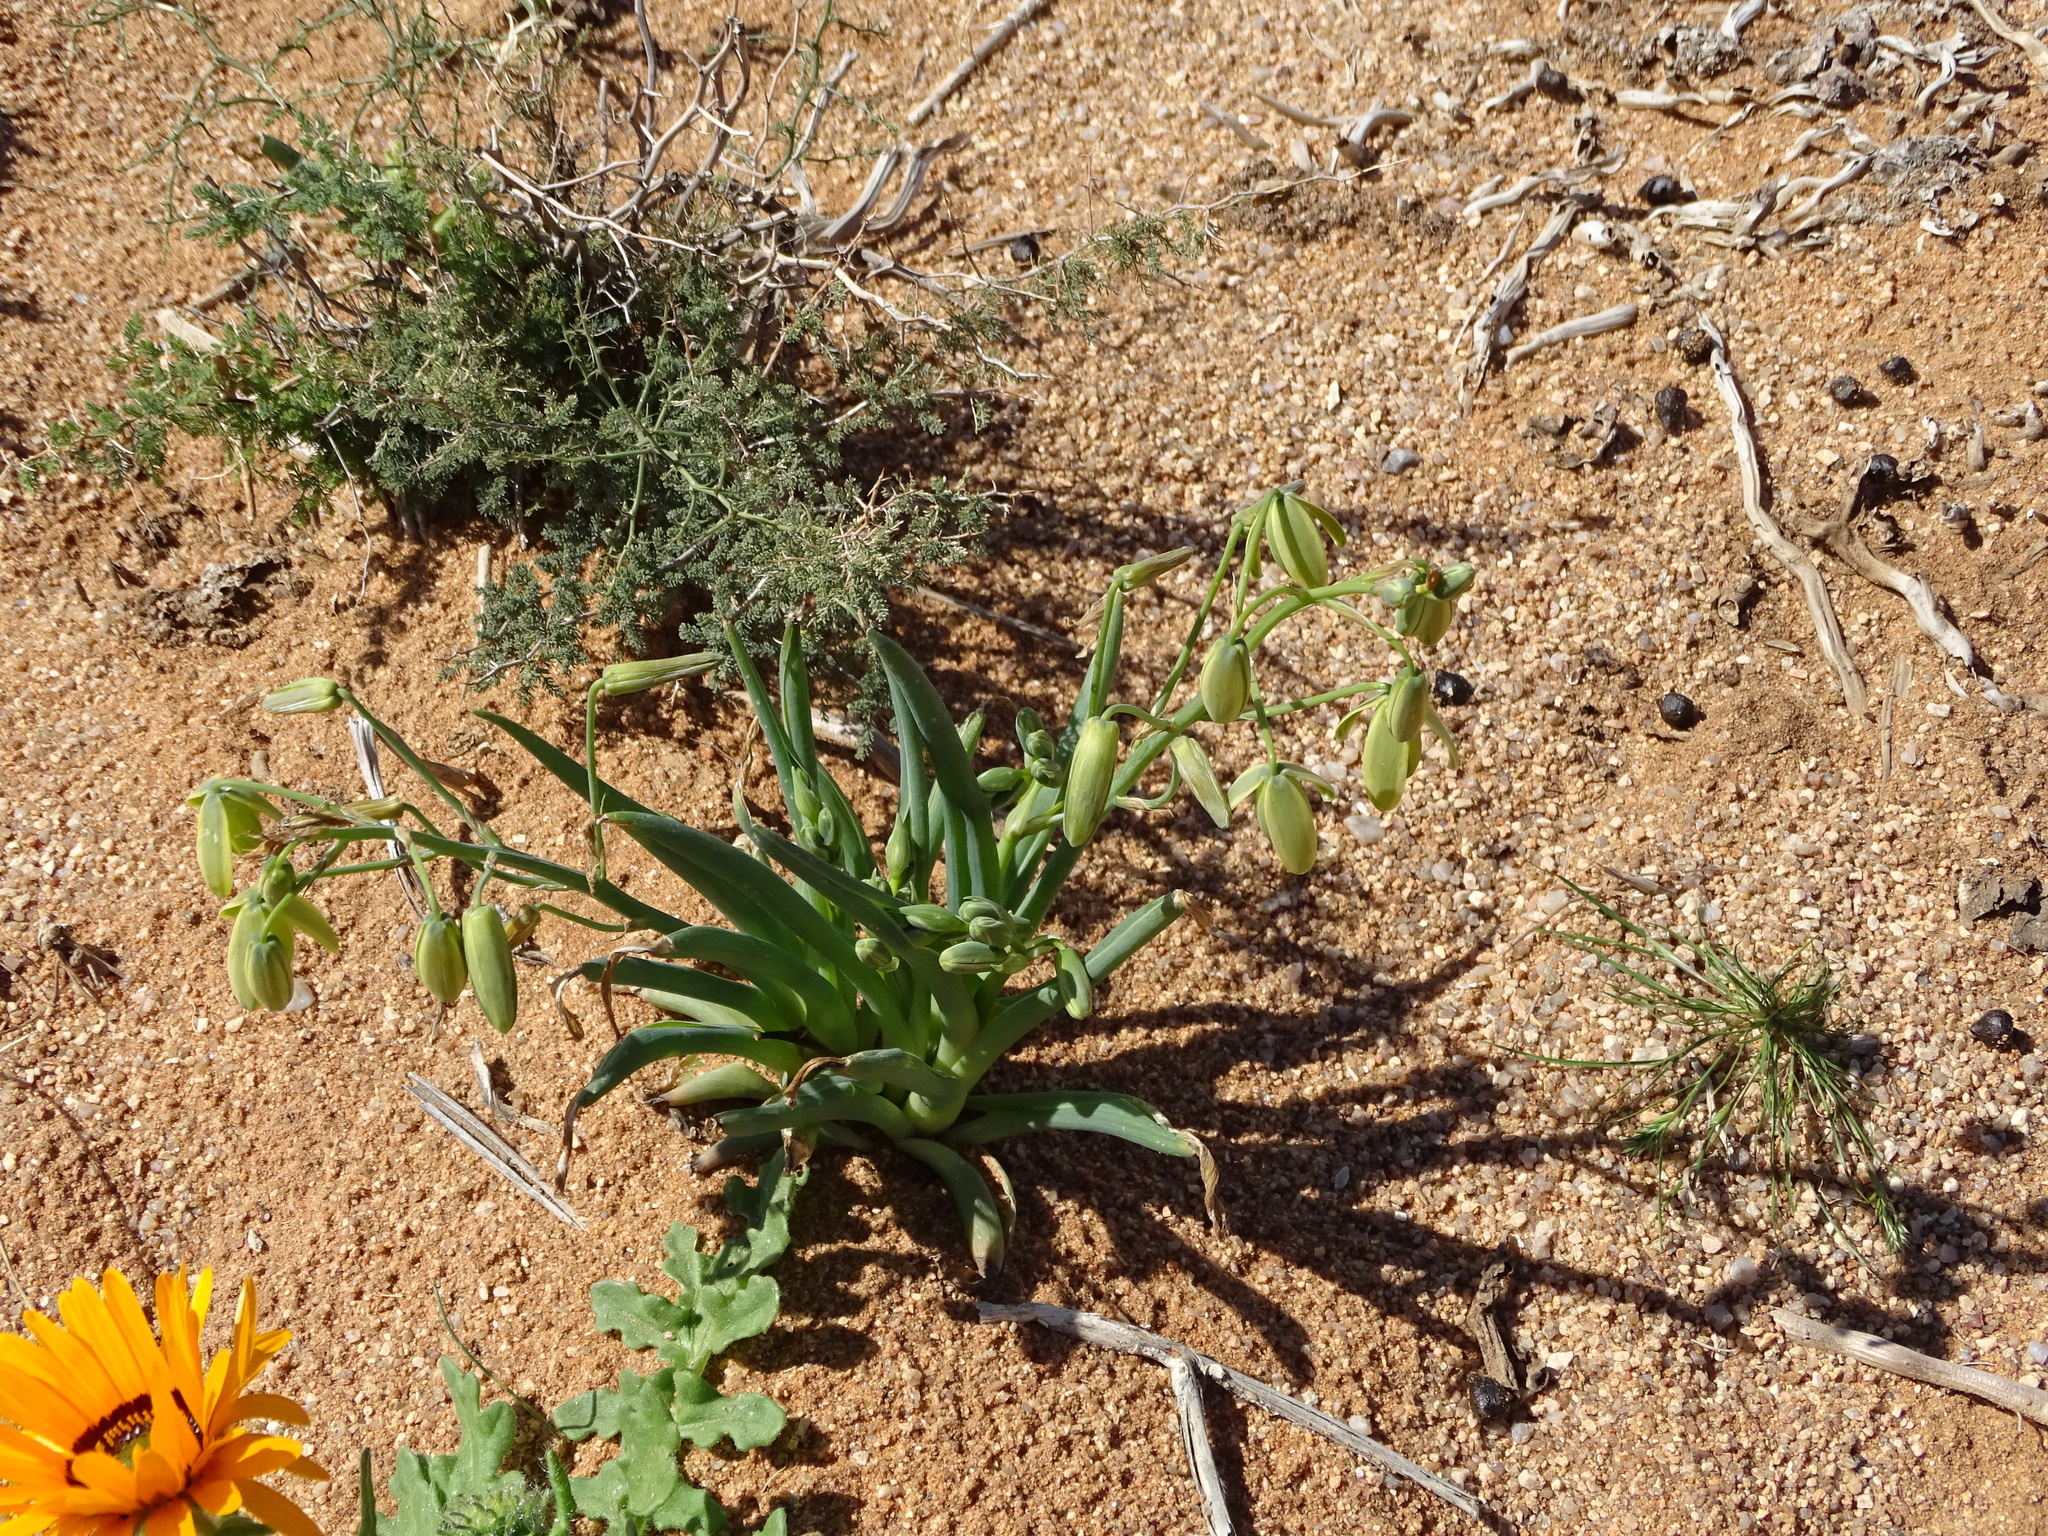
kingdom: Plantae
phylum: Tracheophyta
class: Liliopsida
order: Asparagales
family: Asparagaceae
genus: Albuca
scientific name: Albuca leucantha
